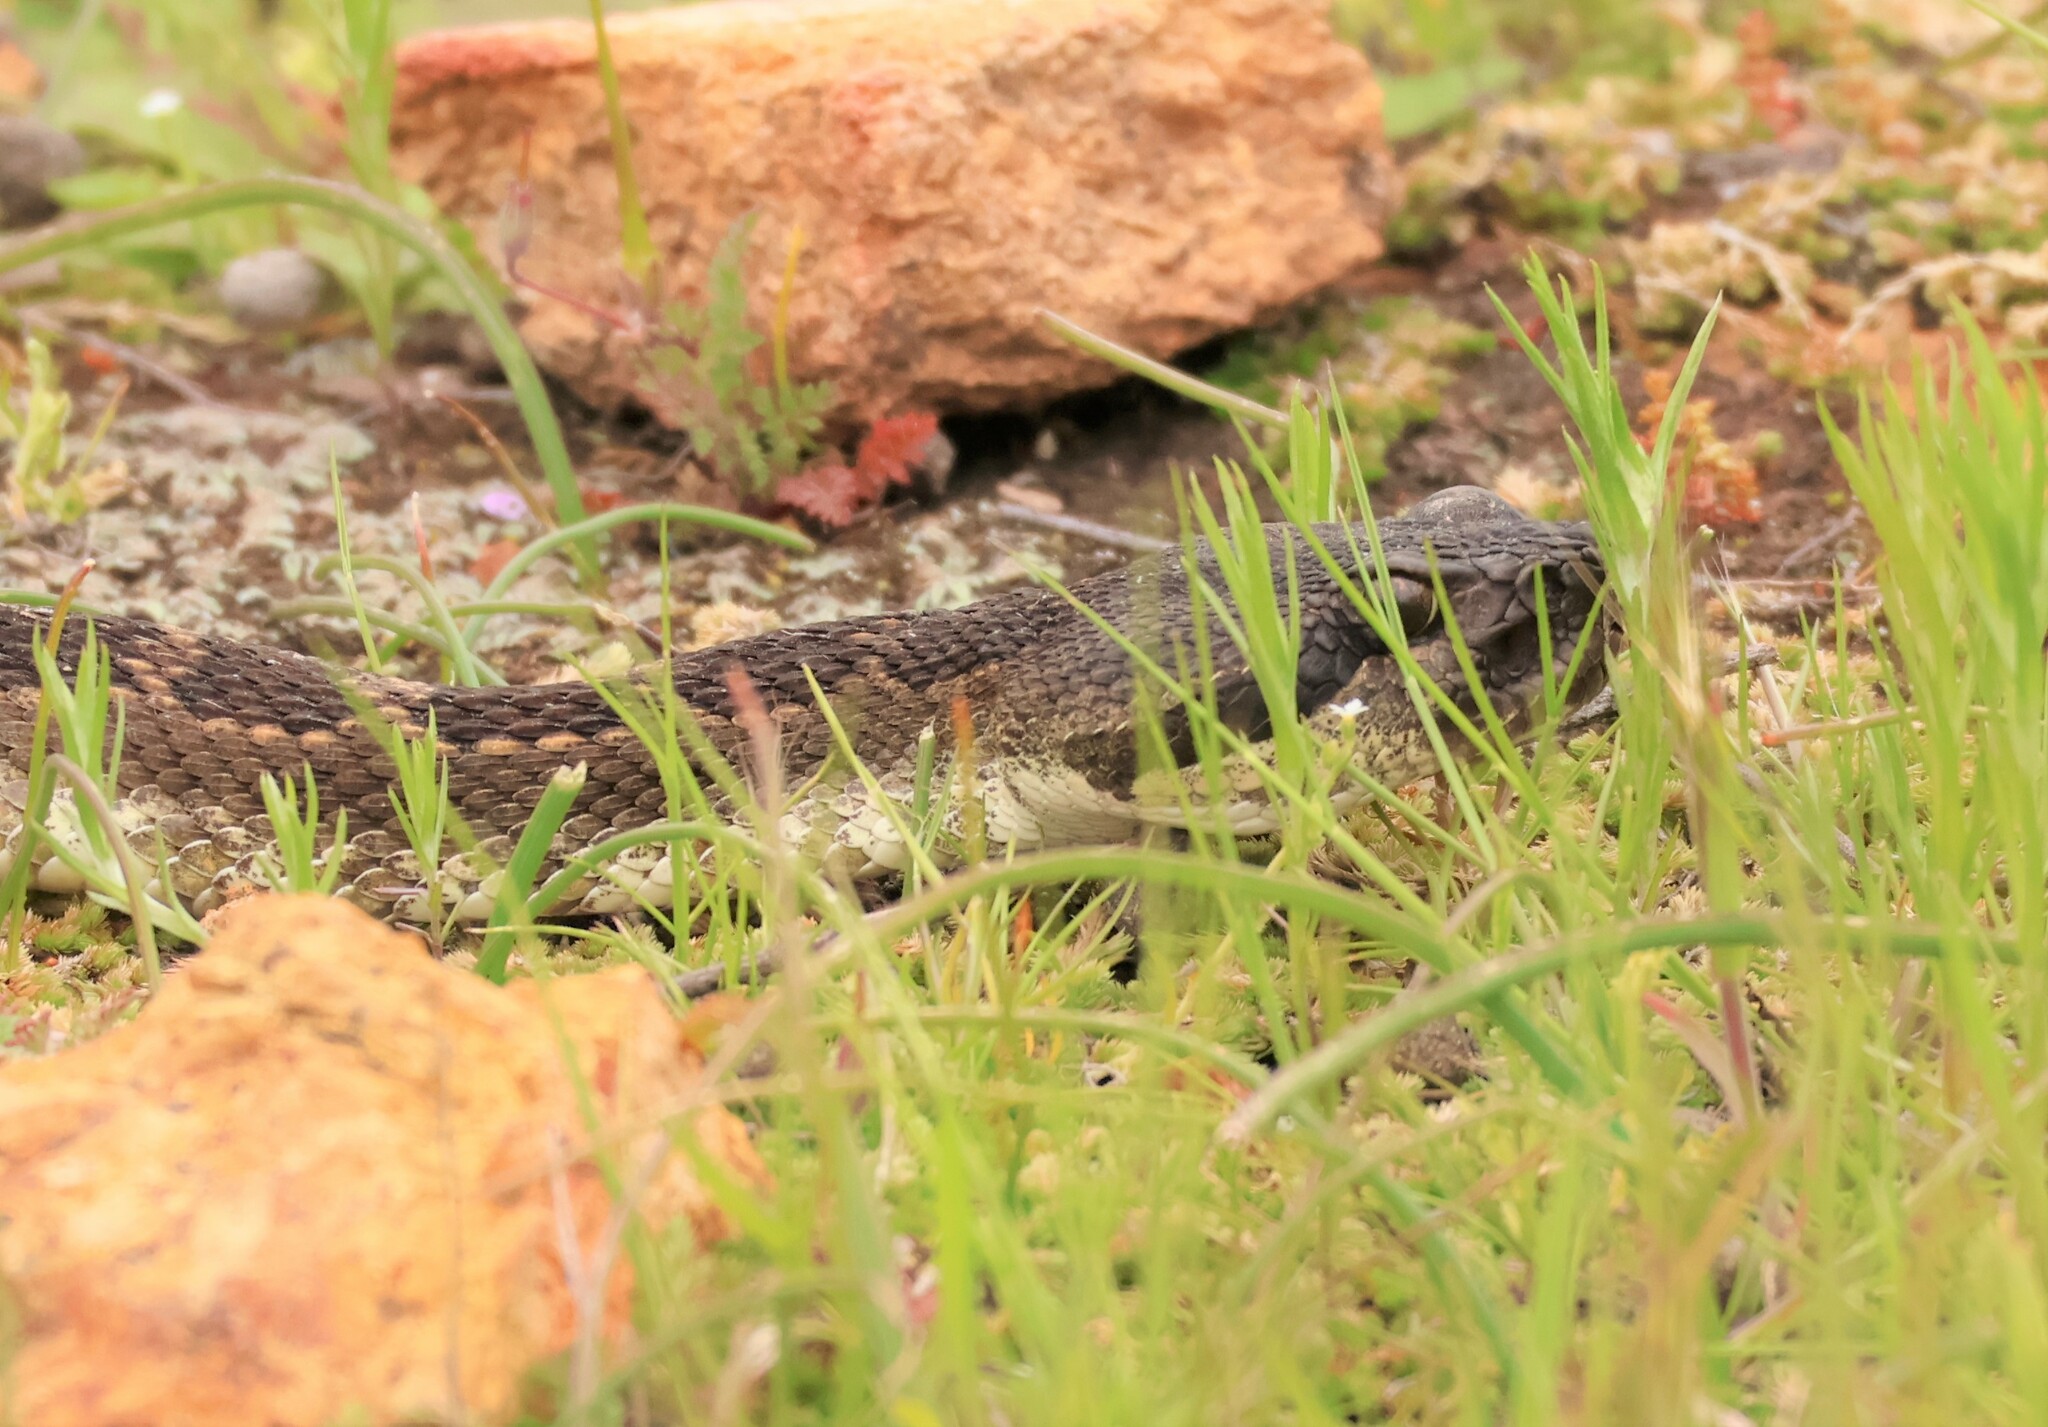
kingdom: Animalia
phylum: Chordata
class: Squamata
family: Viperidae
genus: Crotalus
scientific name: Crotalus oreganus
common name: Abyssus
